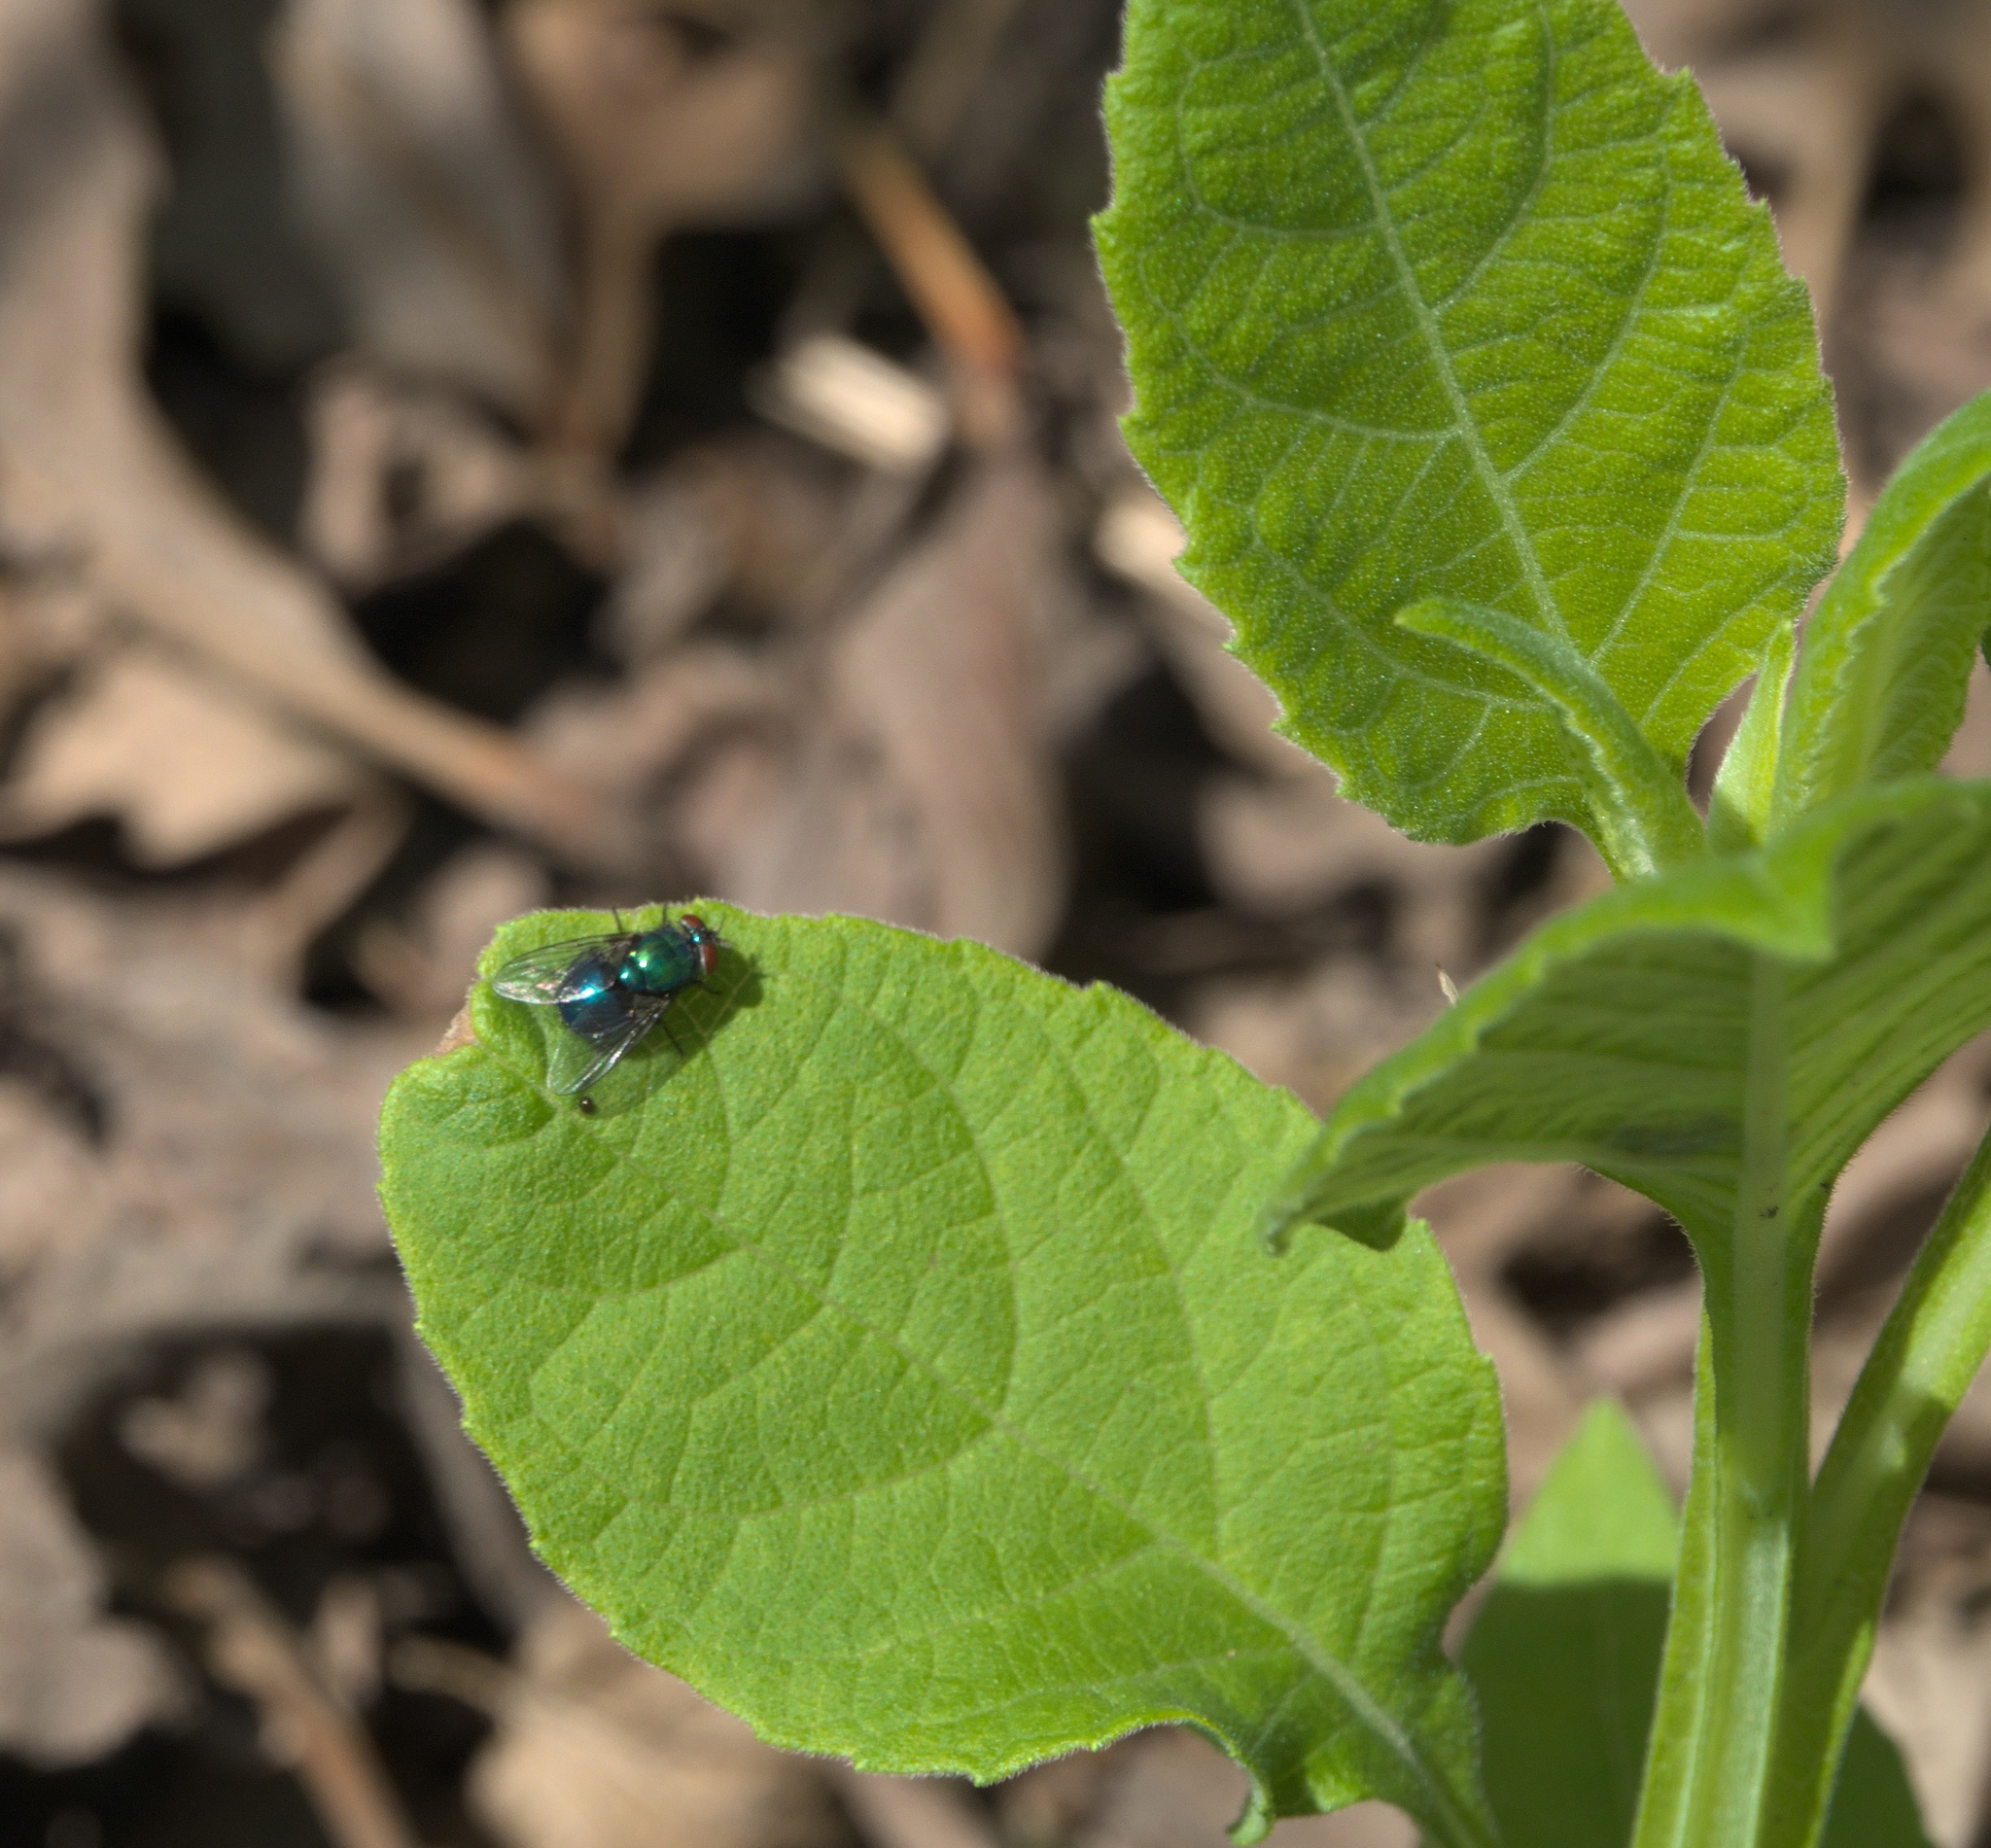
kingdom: Plantae
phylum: Tracheophyta
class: Magnoliopsida
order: Asterales
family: Asteraceae
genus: Verbesina
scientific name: Verbesina virginica
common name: Frostweed
